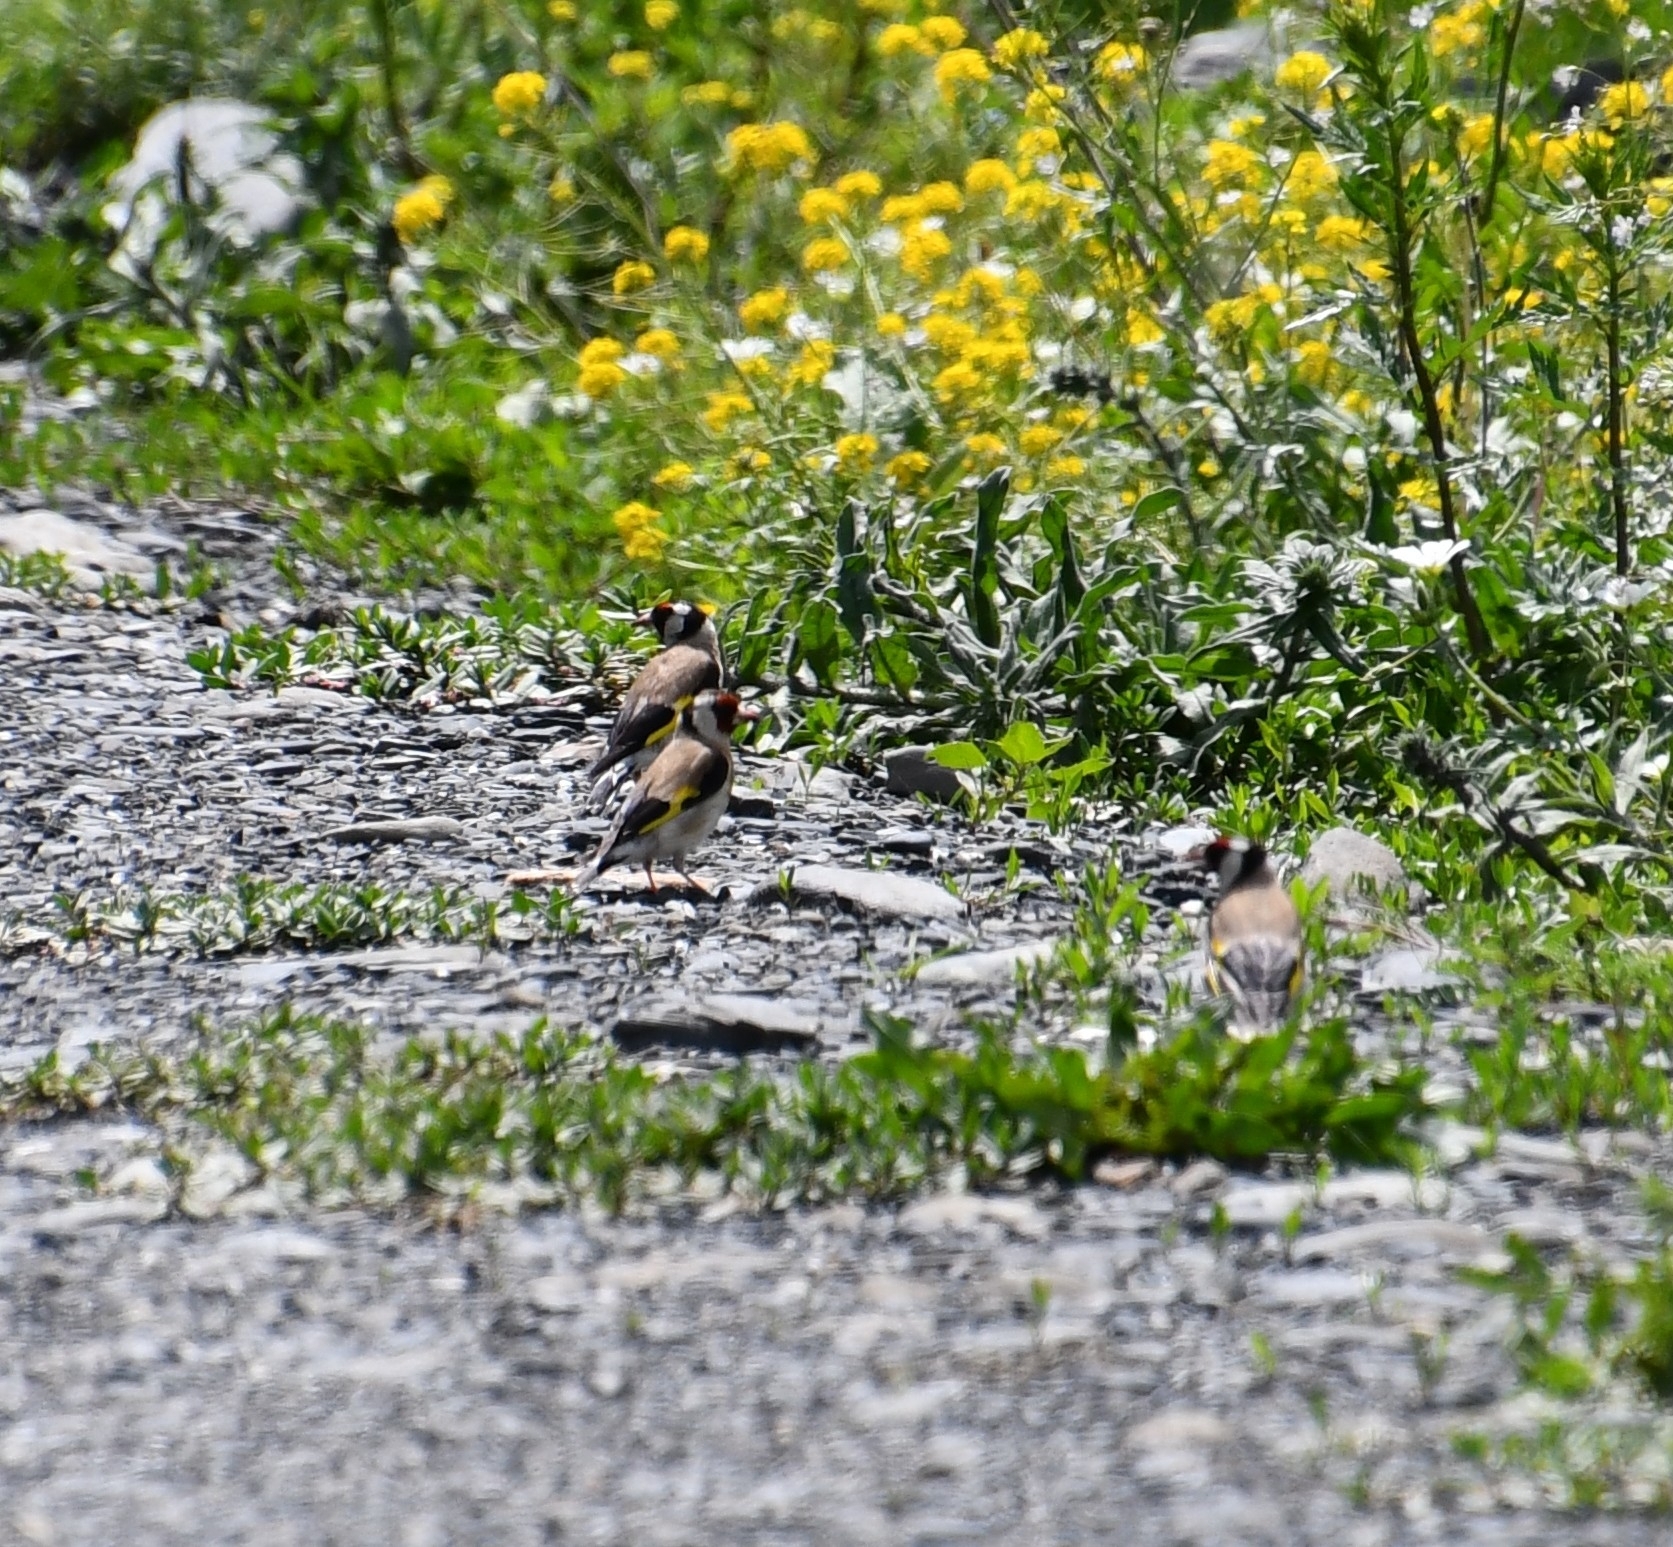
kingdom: Animalia
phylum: Chordata
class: Aves
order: Passeriformes
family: Fringillidae
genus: Carduelis
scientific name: Carduelis carduelis
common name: European goldfinch
